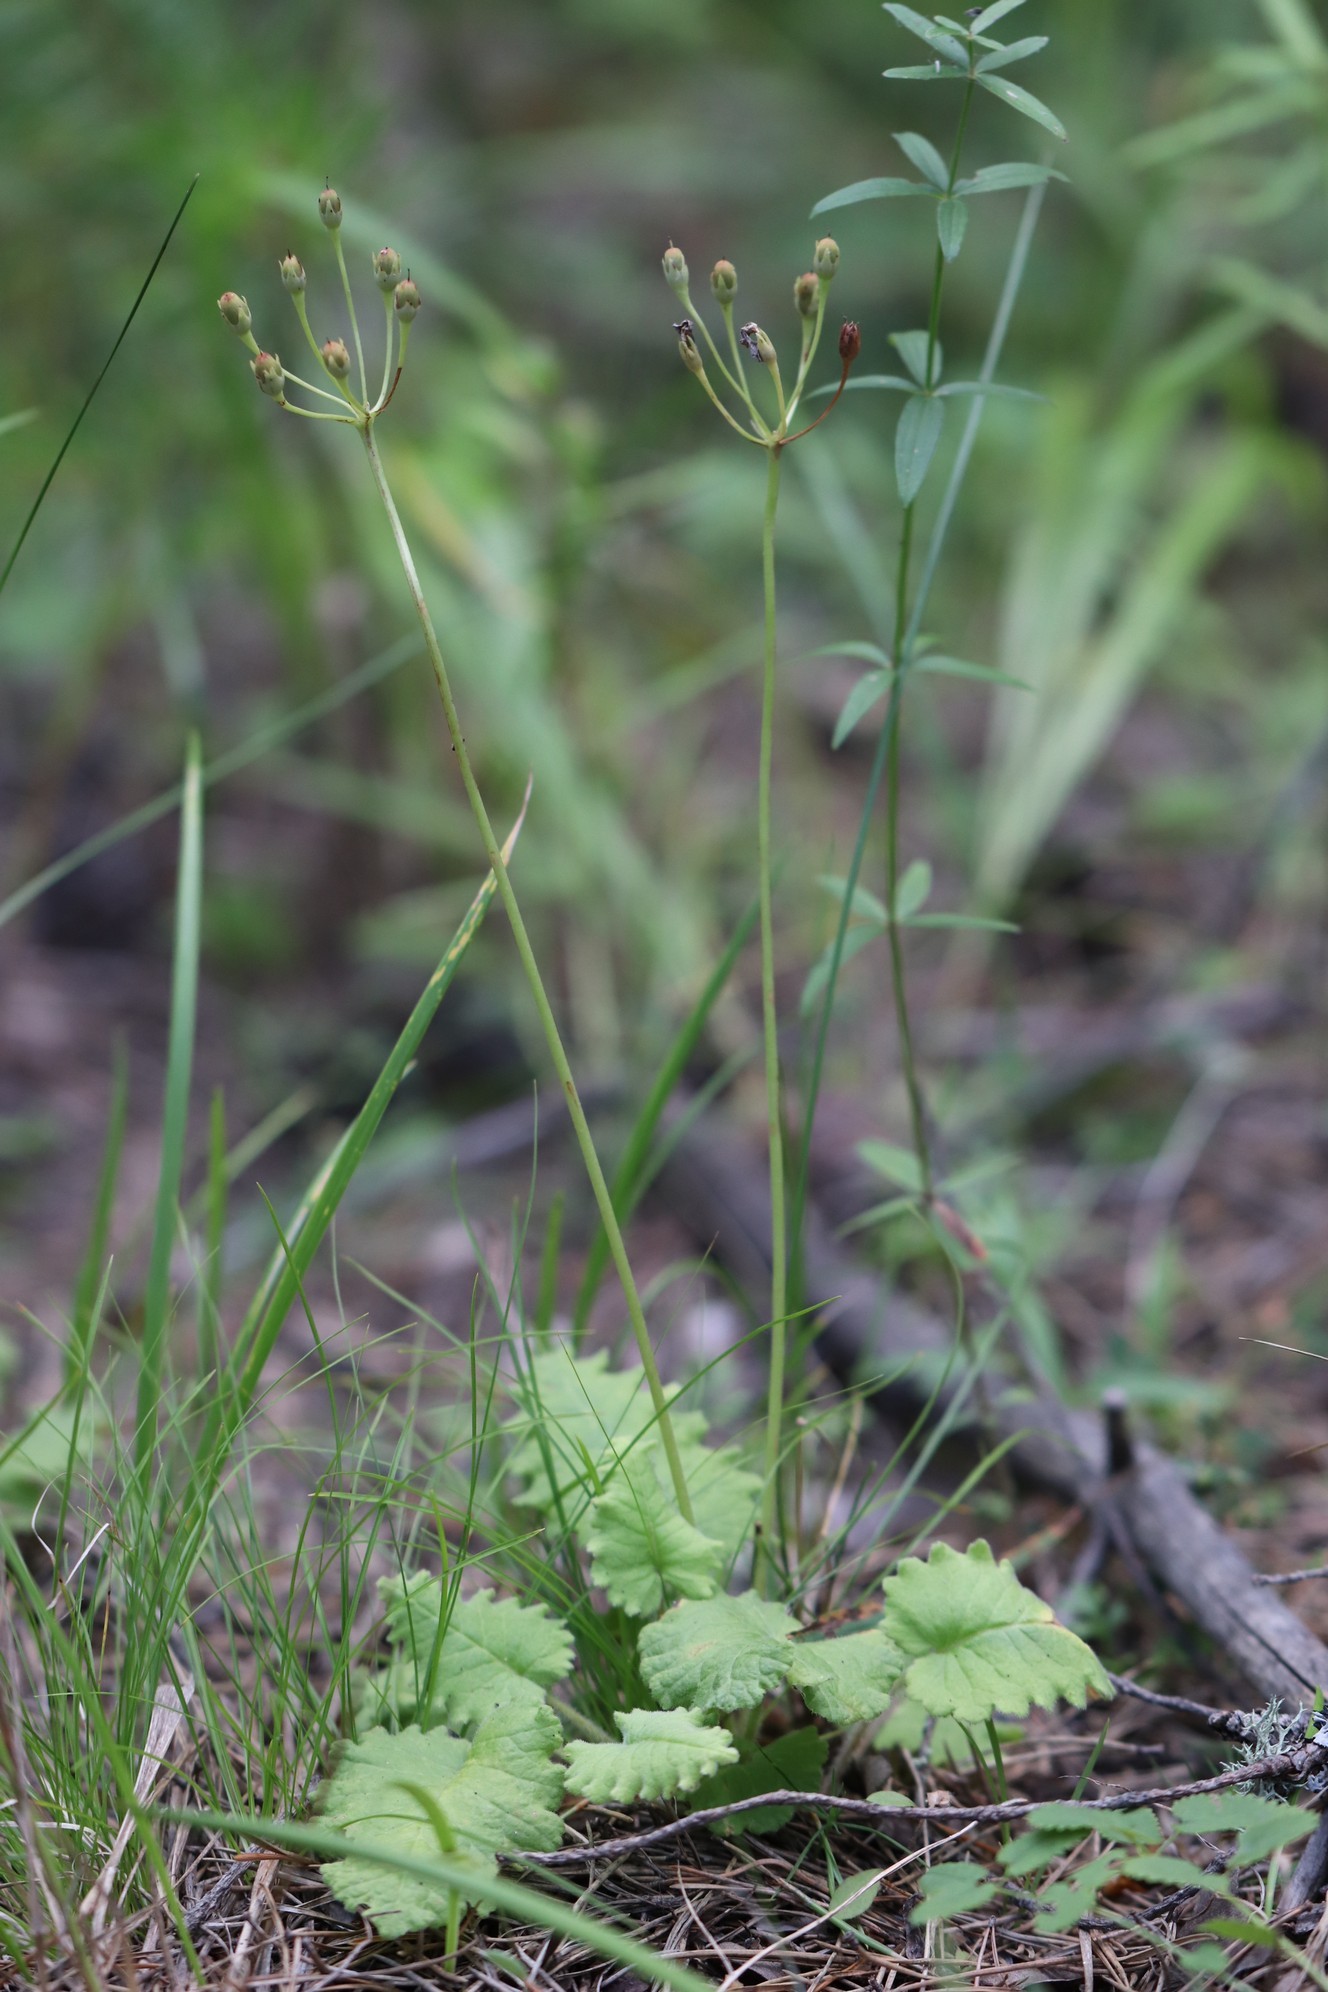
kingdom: Plantae
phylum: Tracheophyta
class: Magnoliopsida
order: Ericales
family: Primulaceae
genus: Primula
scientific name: Primula cortusoides
